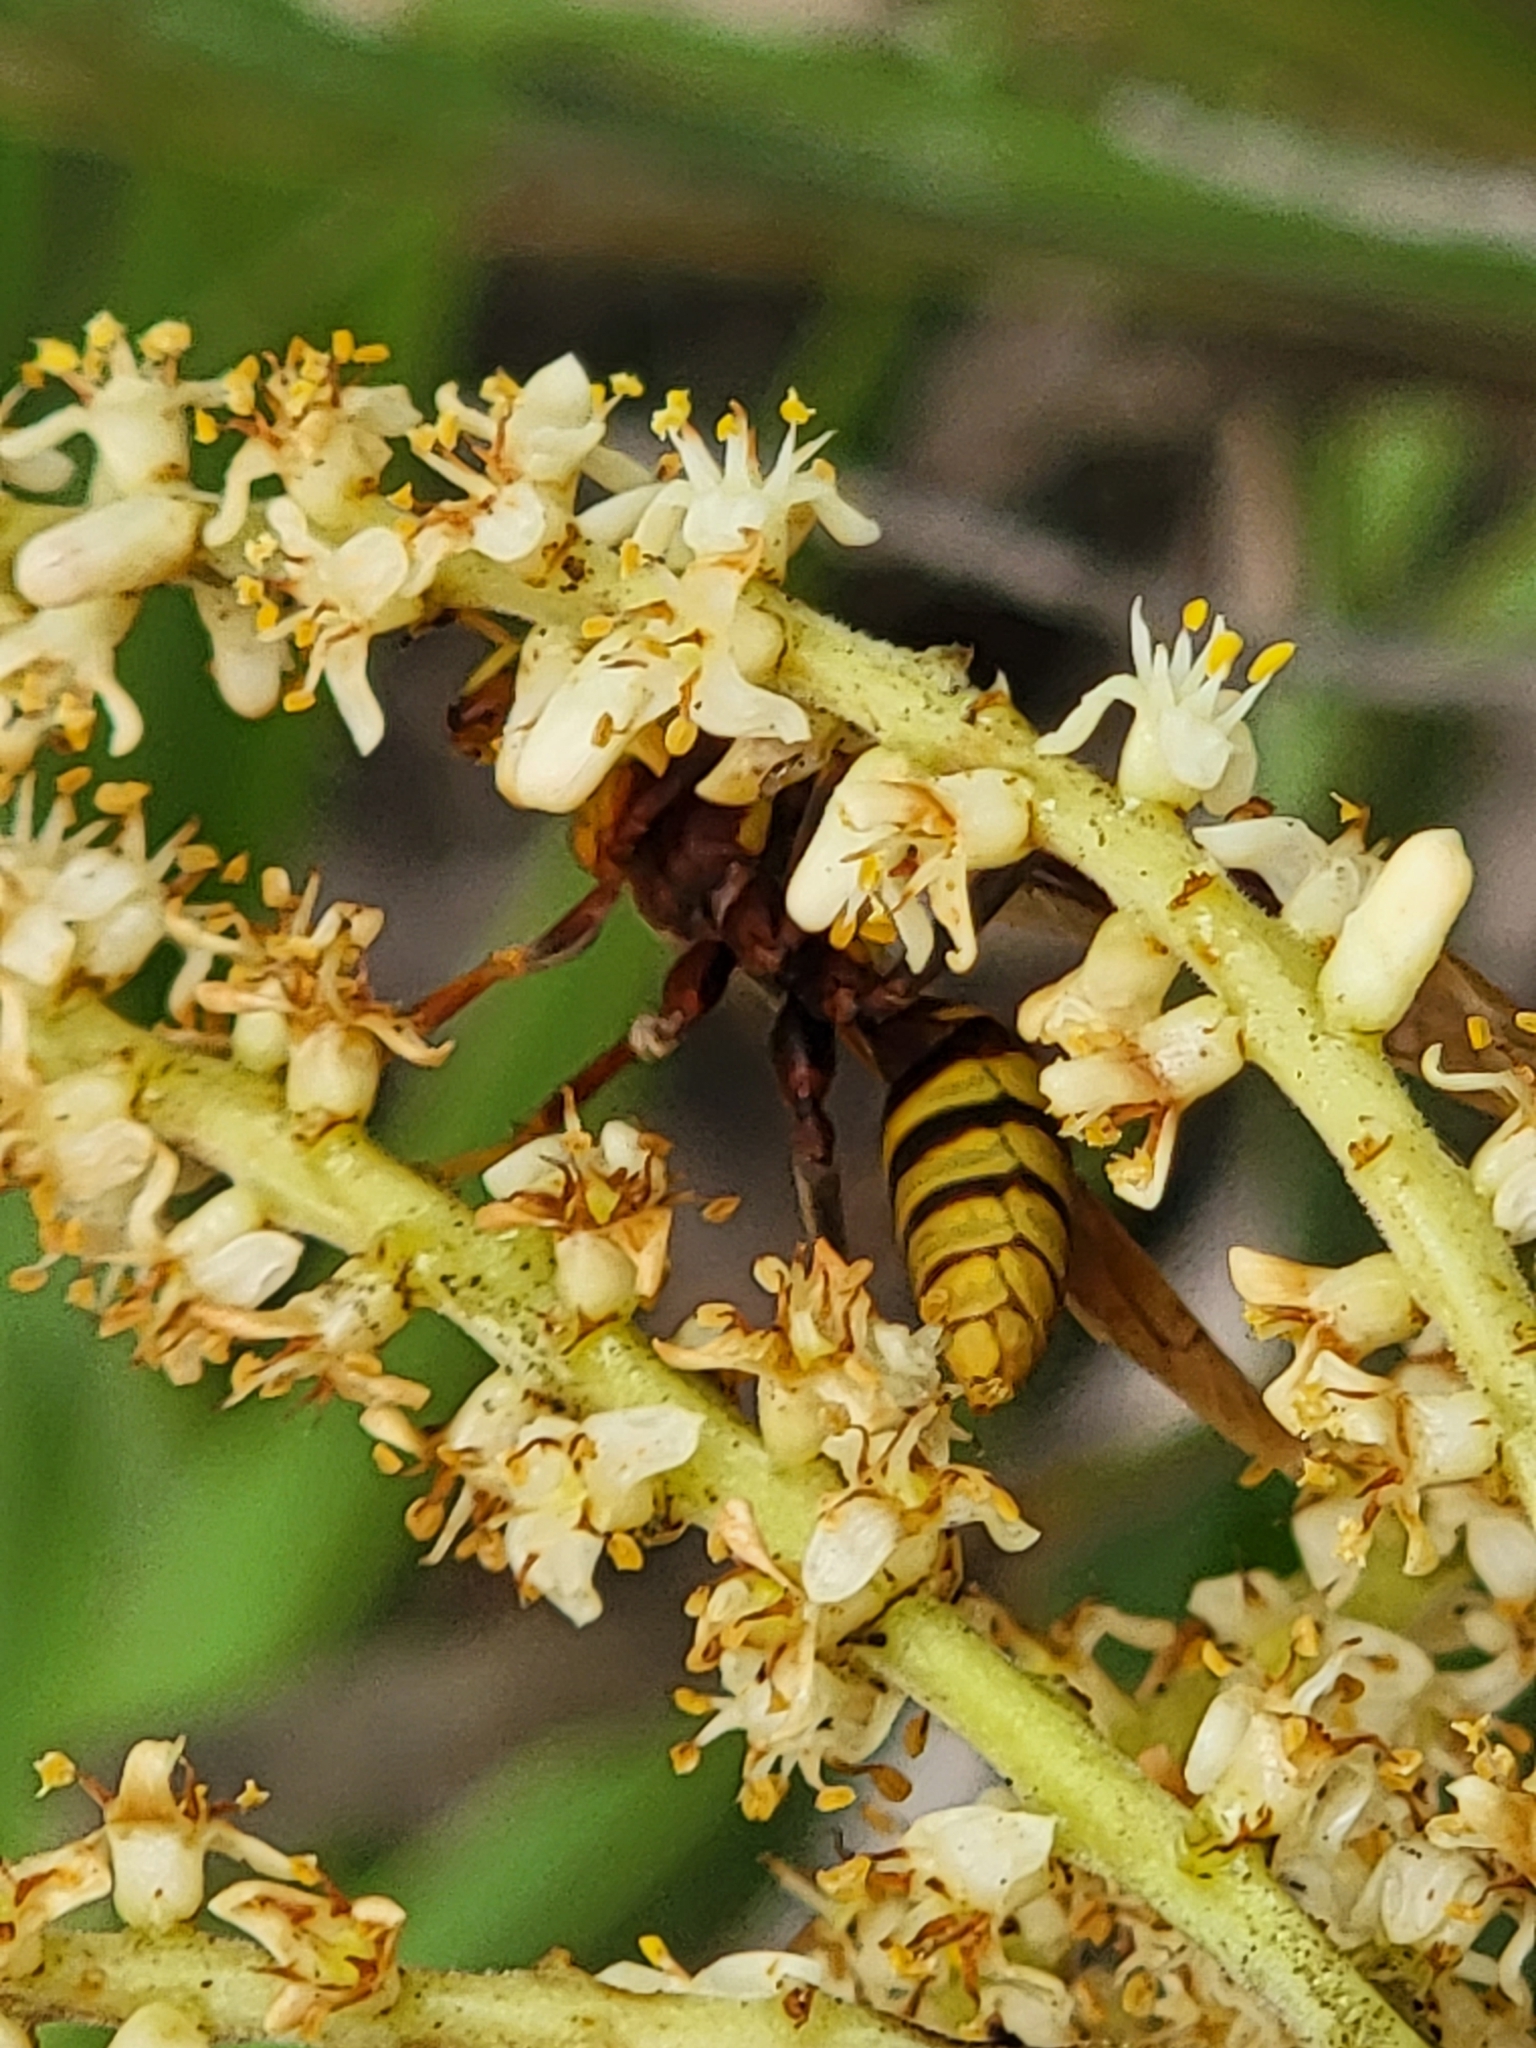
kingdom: Animalia
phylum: Arthropoda
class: Insecta
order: Hymenoptera
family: Eumenidae
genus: Polistes
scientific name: Polistes major
